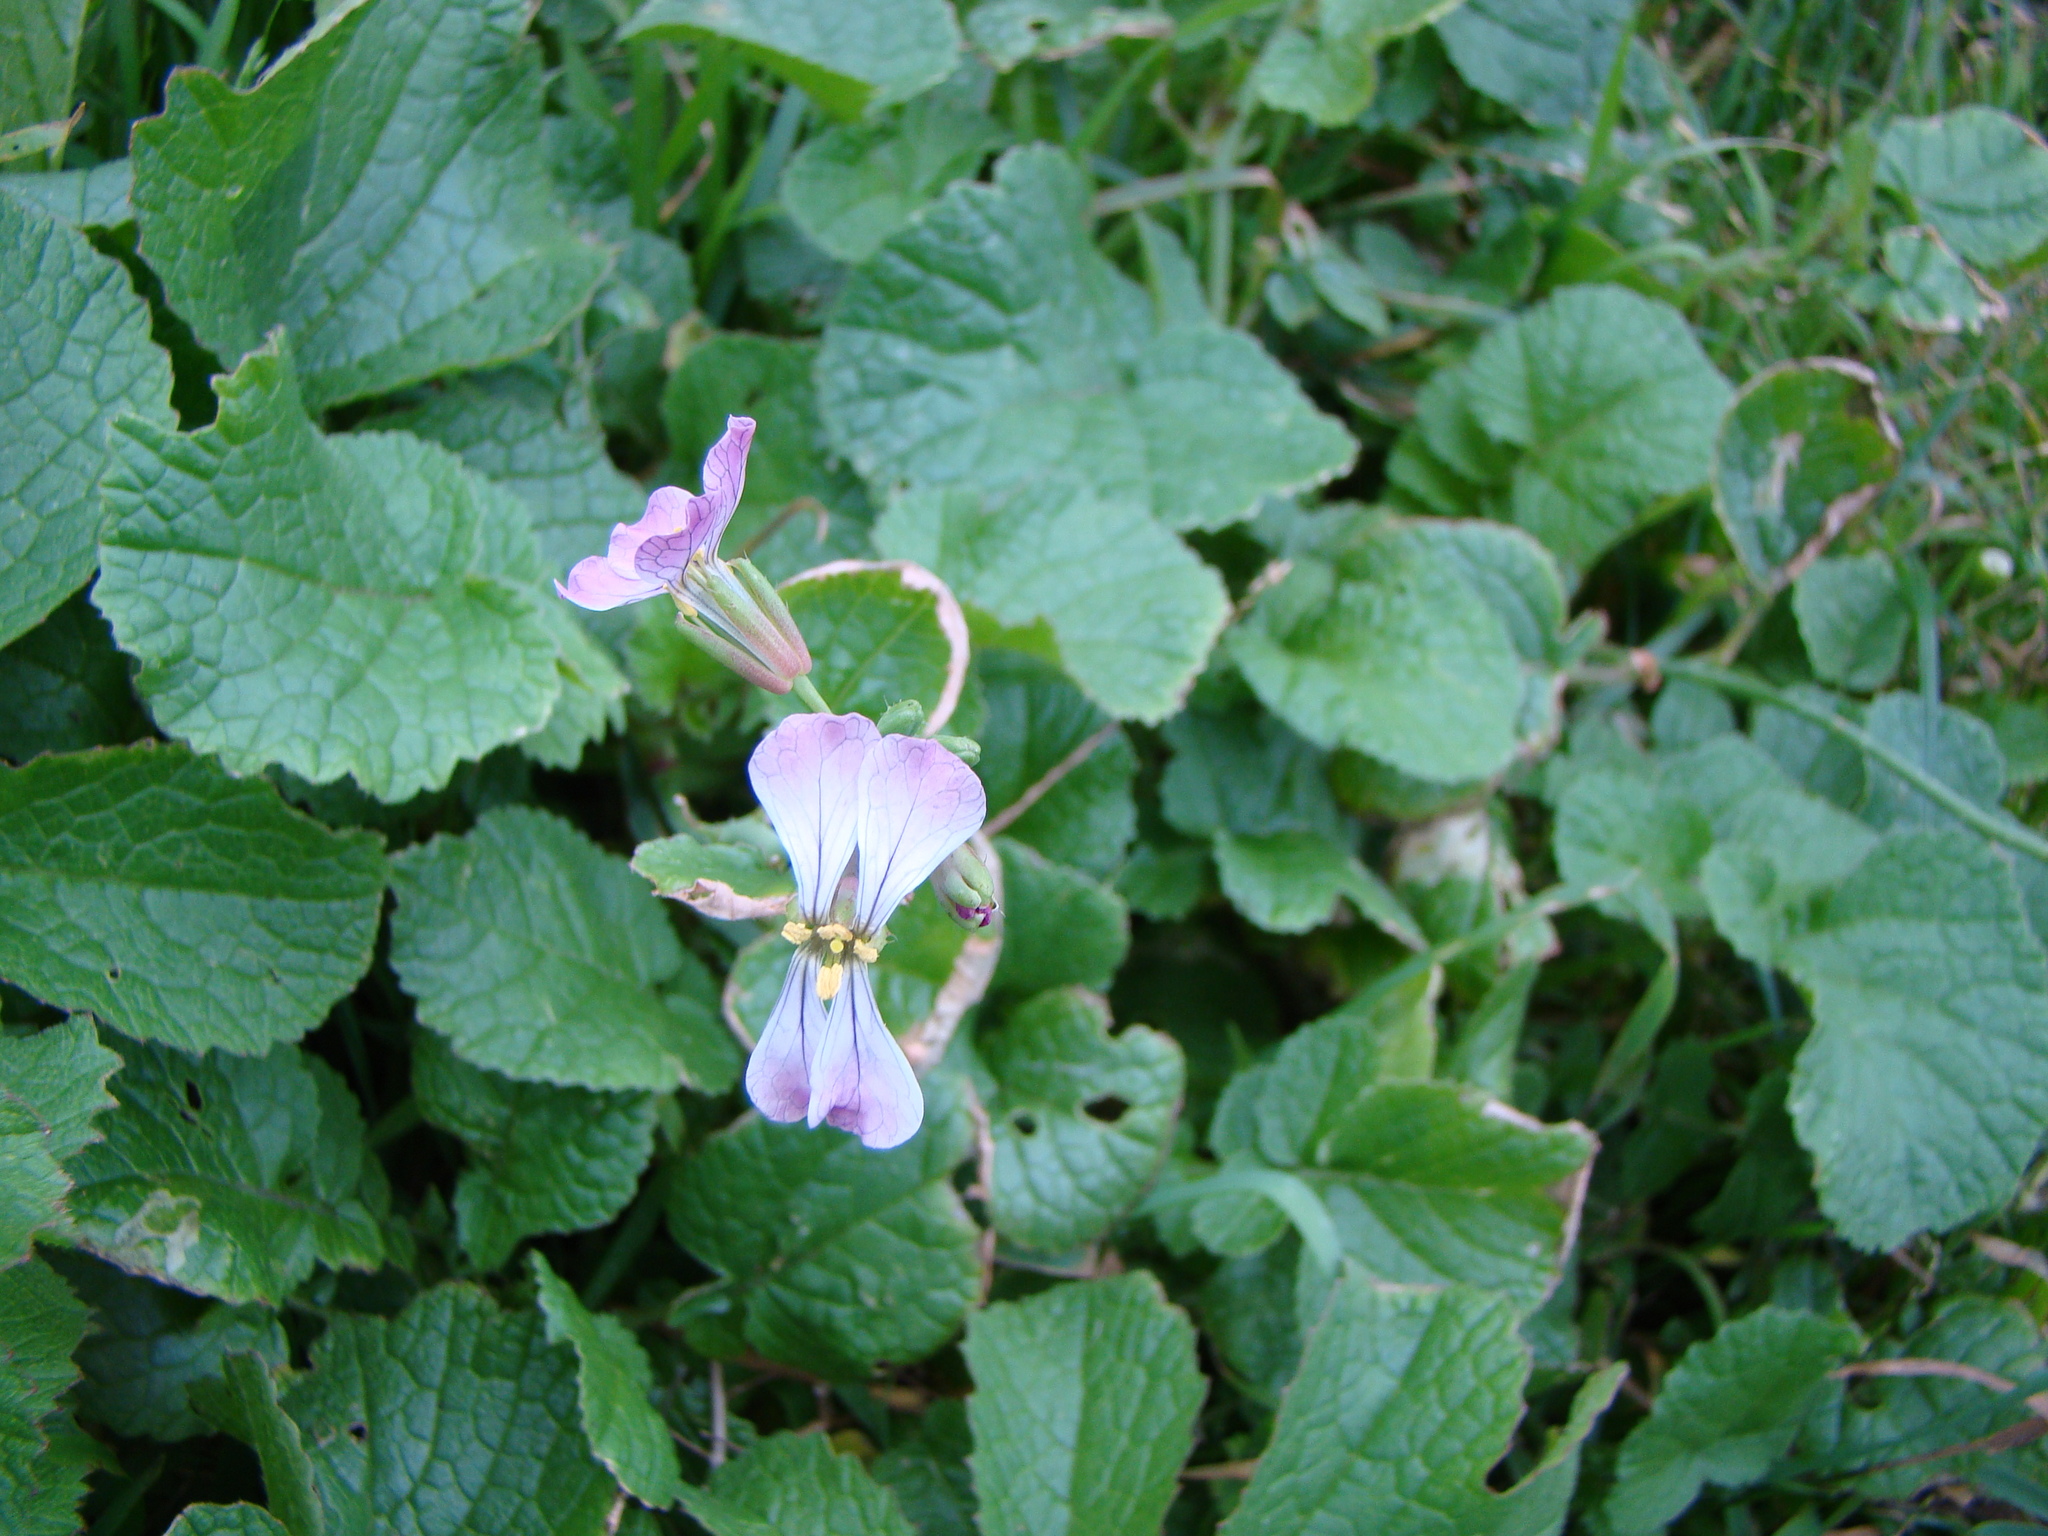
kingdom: Plantae
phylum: Tracheophyta
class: Magnoliopsida
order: Brassicales
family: Brassicaceae
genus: Raphanus
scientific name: Raphanus sativus
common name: Cultivated radish
